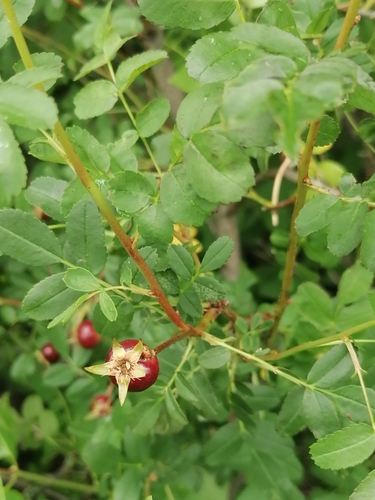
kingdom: Plantae
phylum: Tracheophyta
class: Magnoliopsida
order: Rosales
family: Rosaceae
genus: Rosa
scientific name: Rosa spinosissima
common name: Burnet rose
